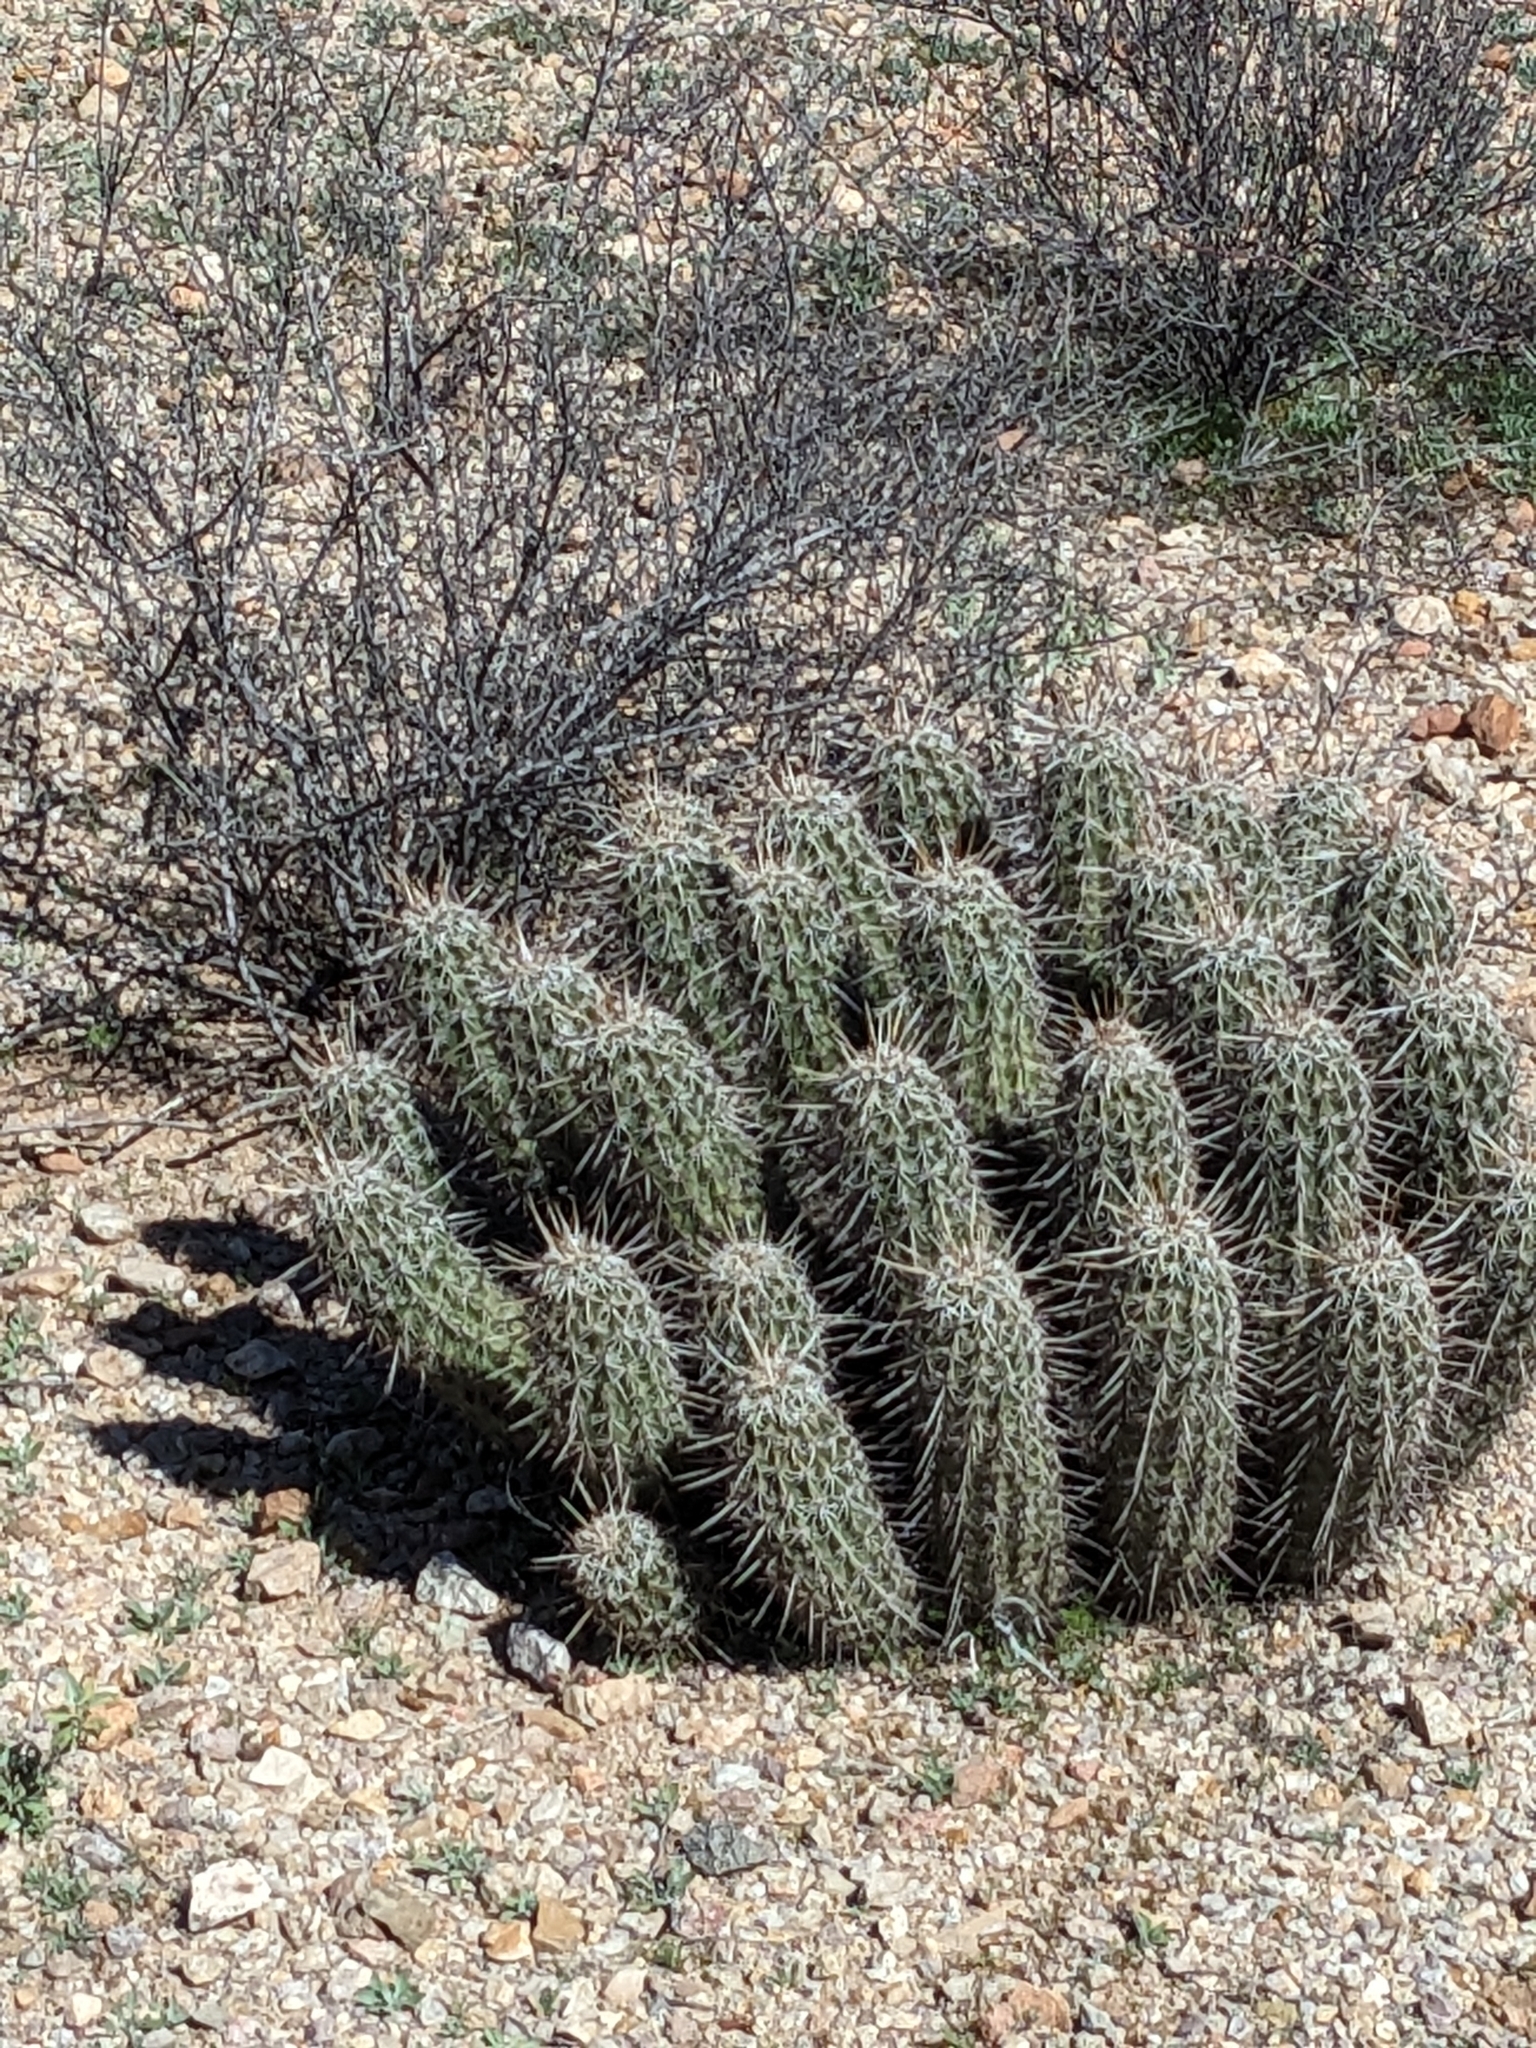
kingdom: Plantae
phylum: Tracheophyta
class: Magnoliopsida
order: Caryophyllales
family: Cactaceae
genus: Echinocereus
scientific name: Echinocereus fasciculatus
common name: Bundle hedgehog
